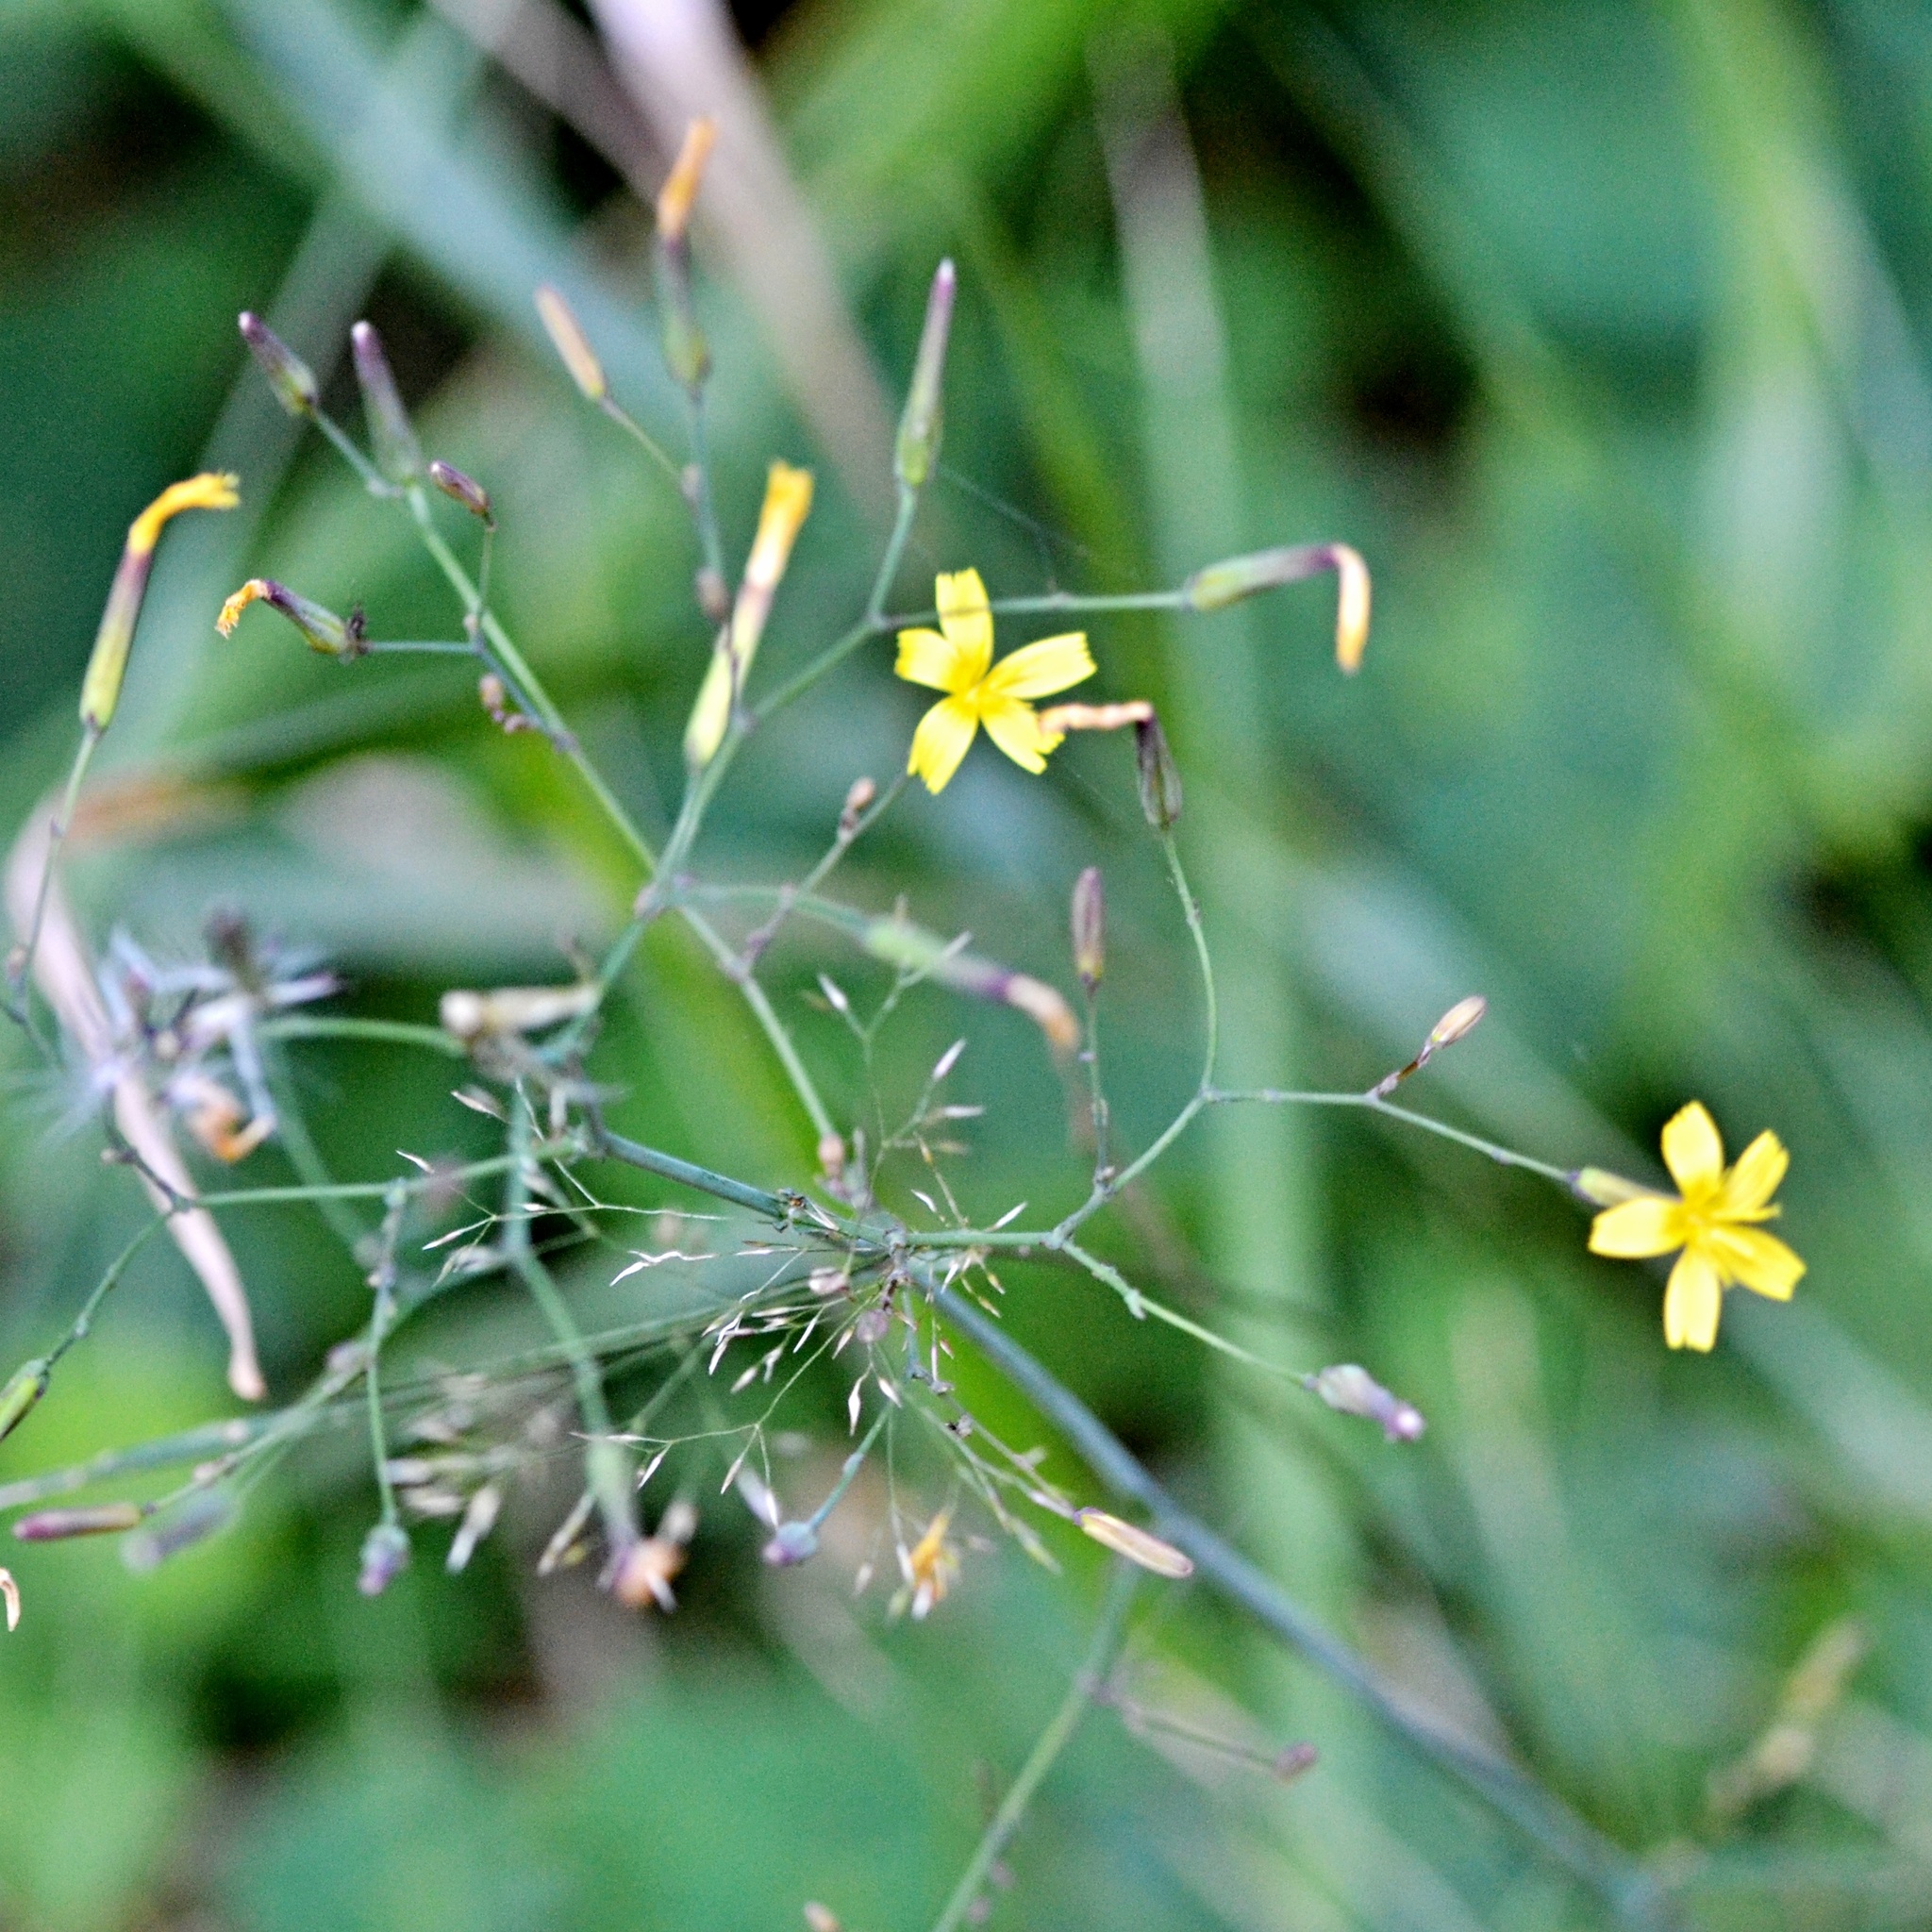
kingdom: Plantae
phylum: Tracheophyta
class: Magnoliopsida
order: Asterales
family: Asteraceae
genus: Mycelis
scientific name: Mycelis muralis
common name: Wall lettuce
